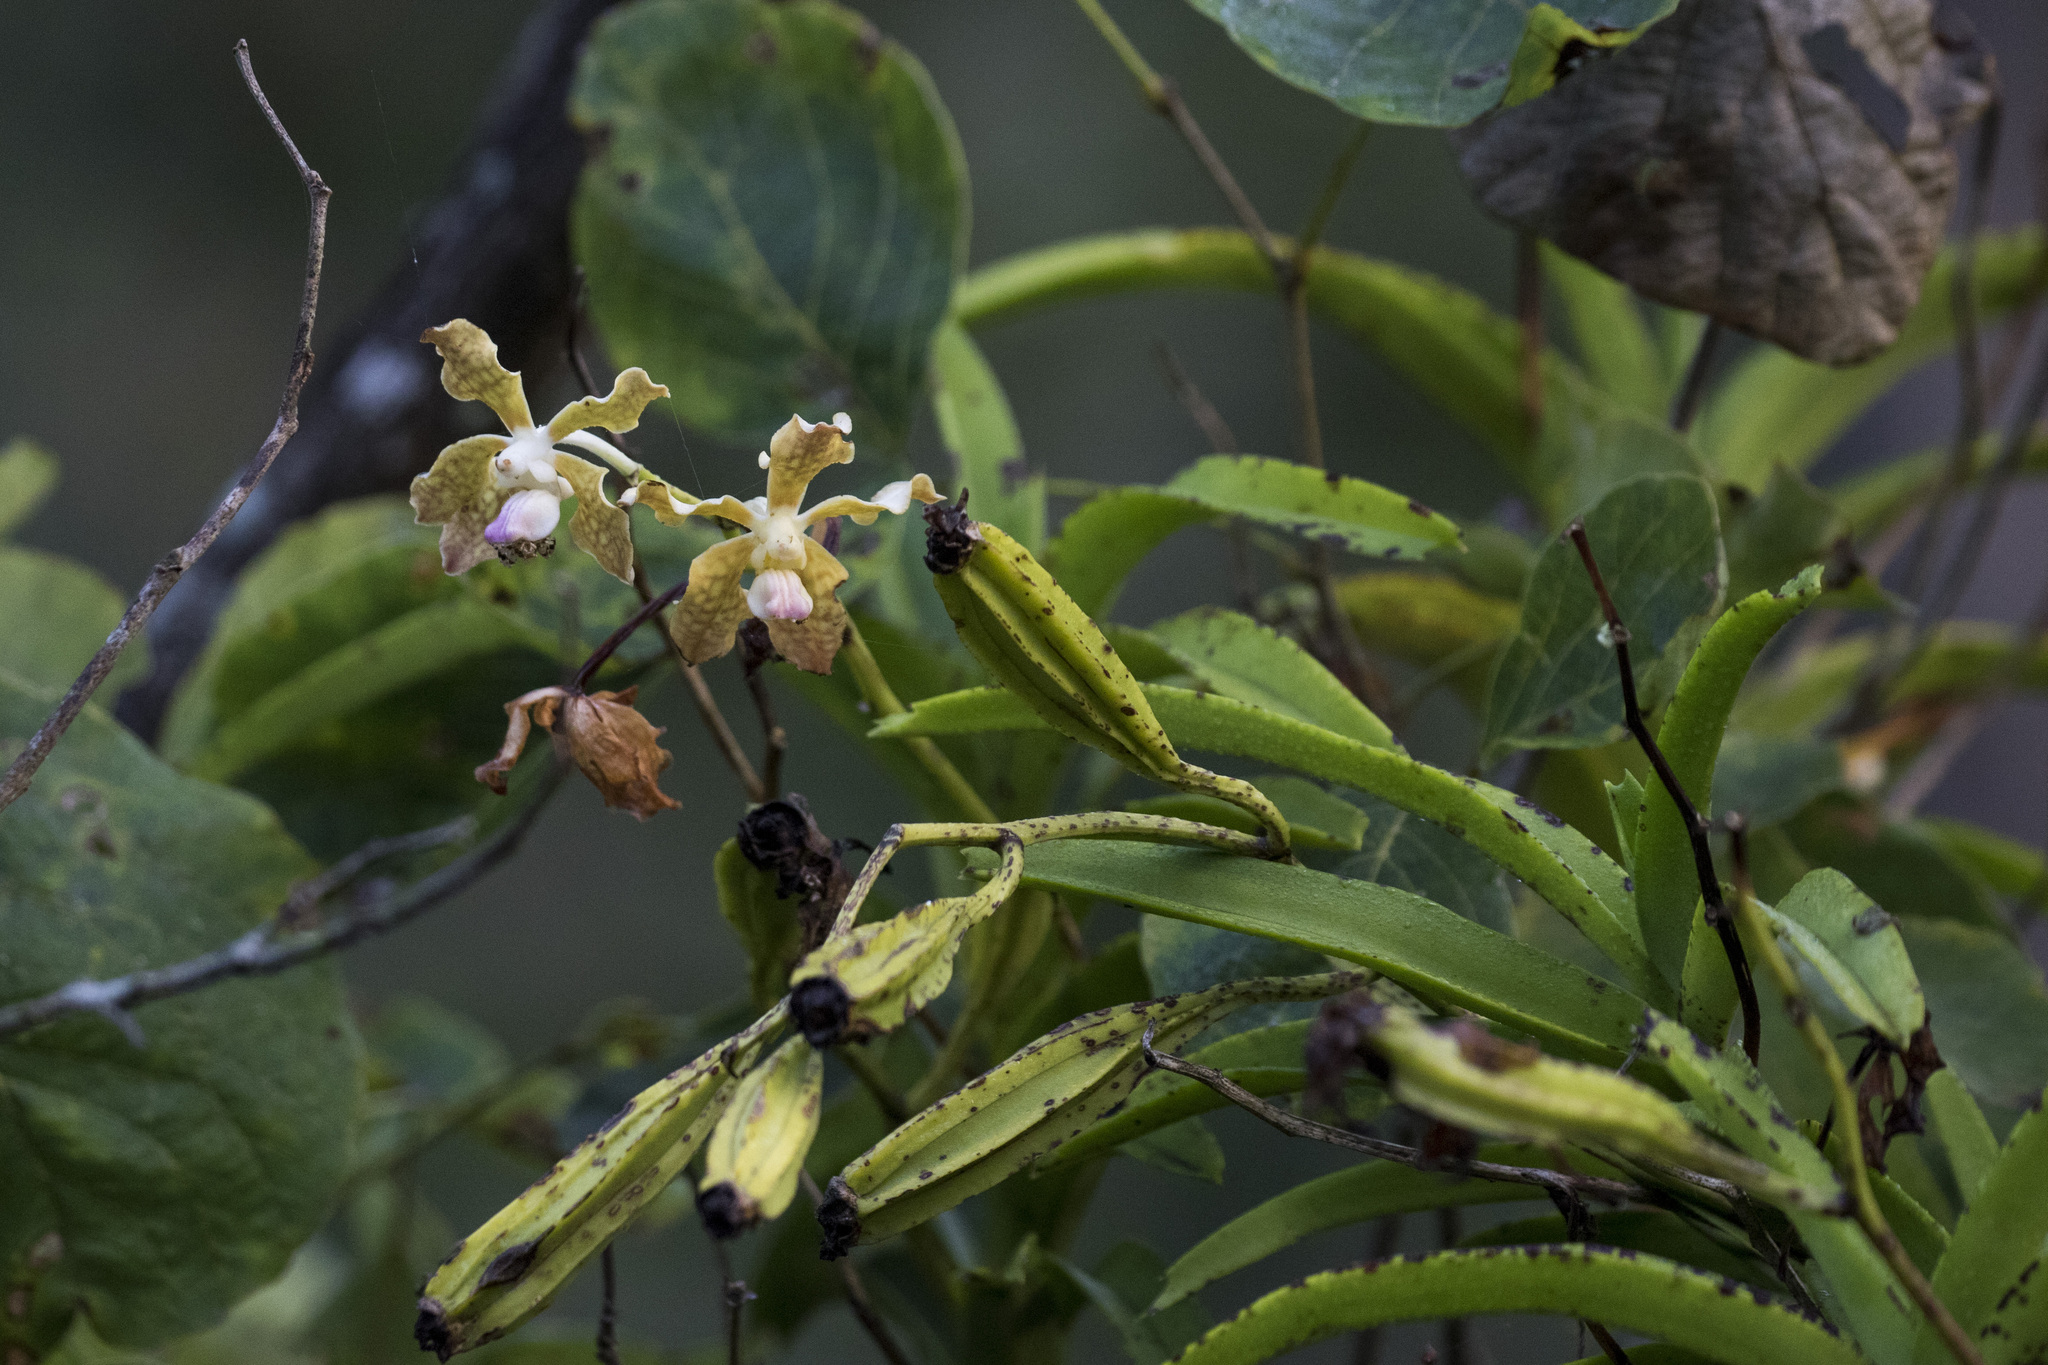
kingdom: Plantae
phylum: Tracheophyta
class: Liliopsida
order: Asparagales
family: Orchidaceae
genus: Vanda
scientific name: Vanda tessellata
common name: Grey orchid
